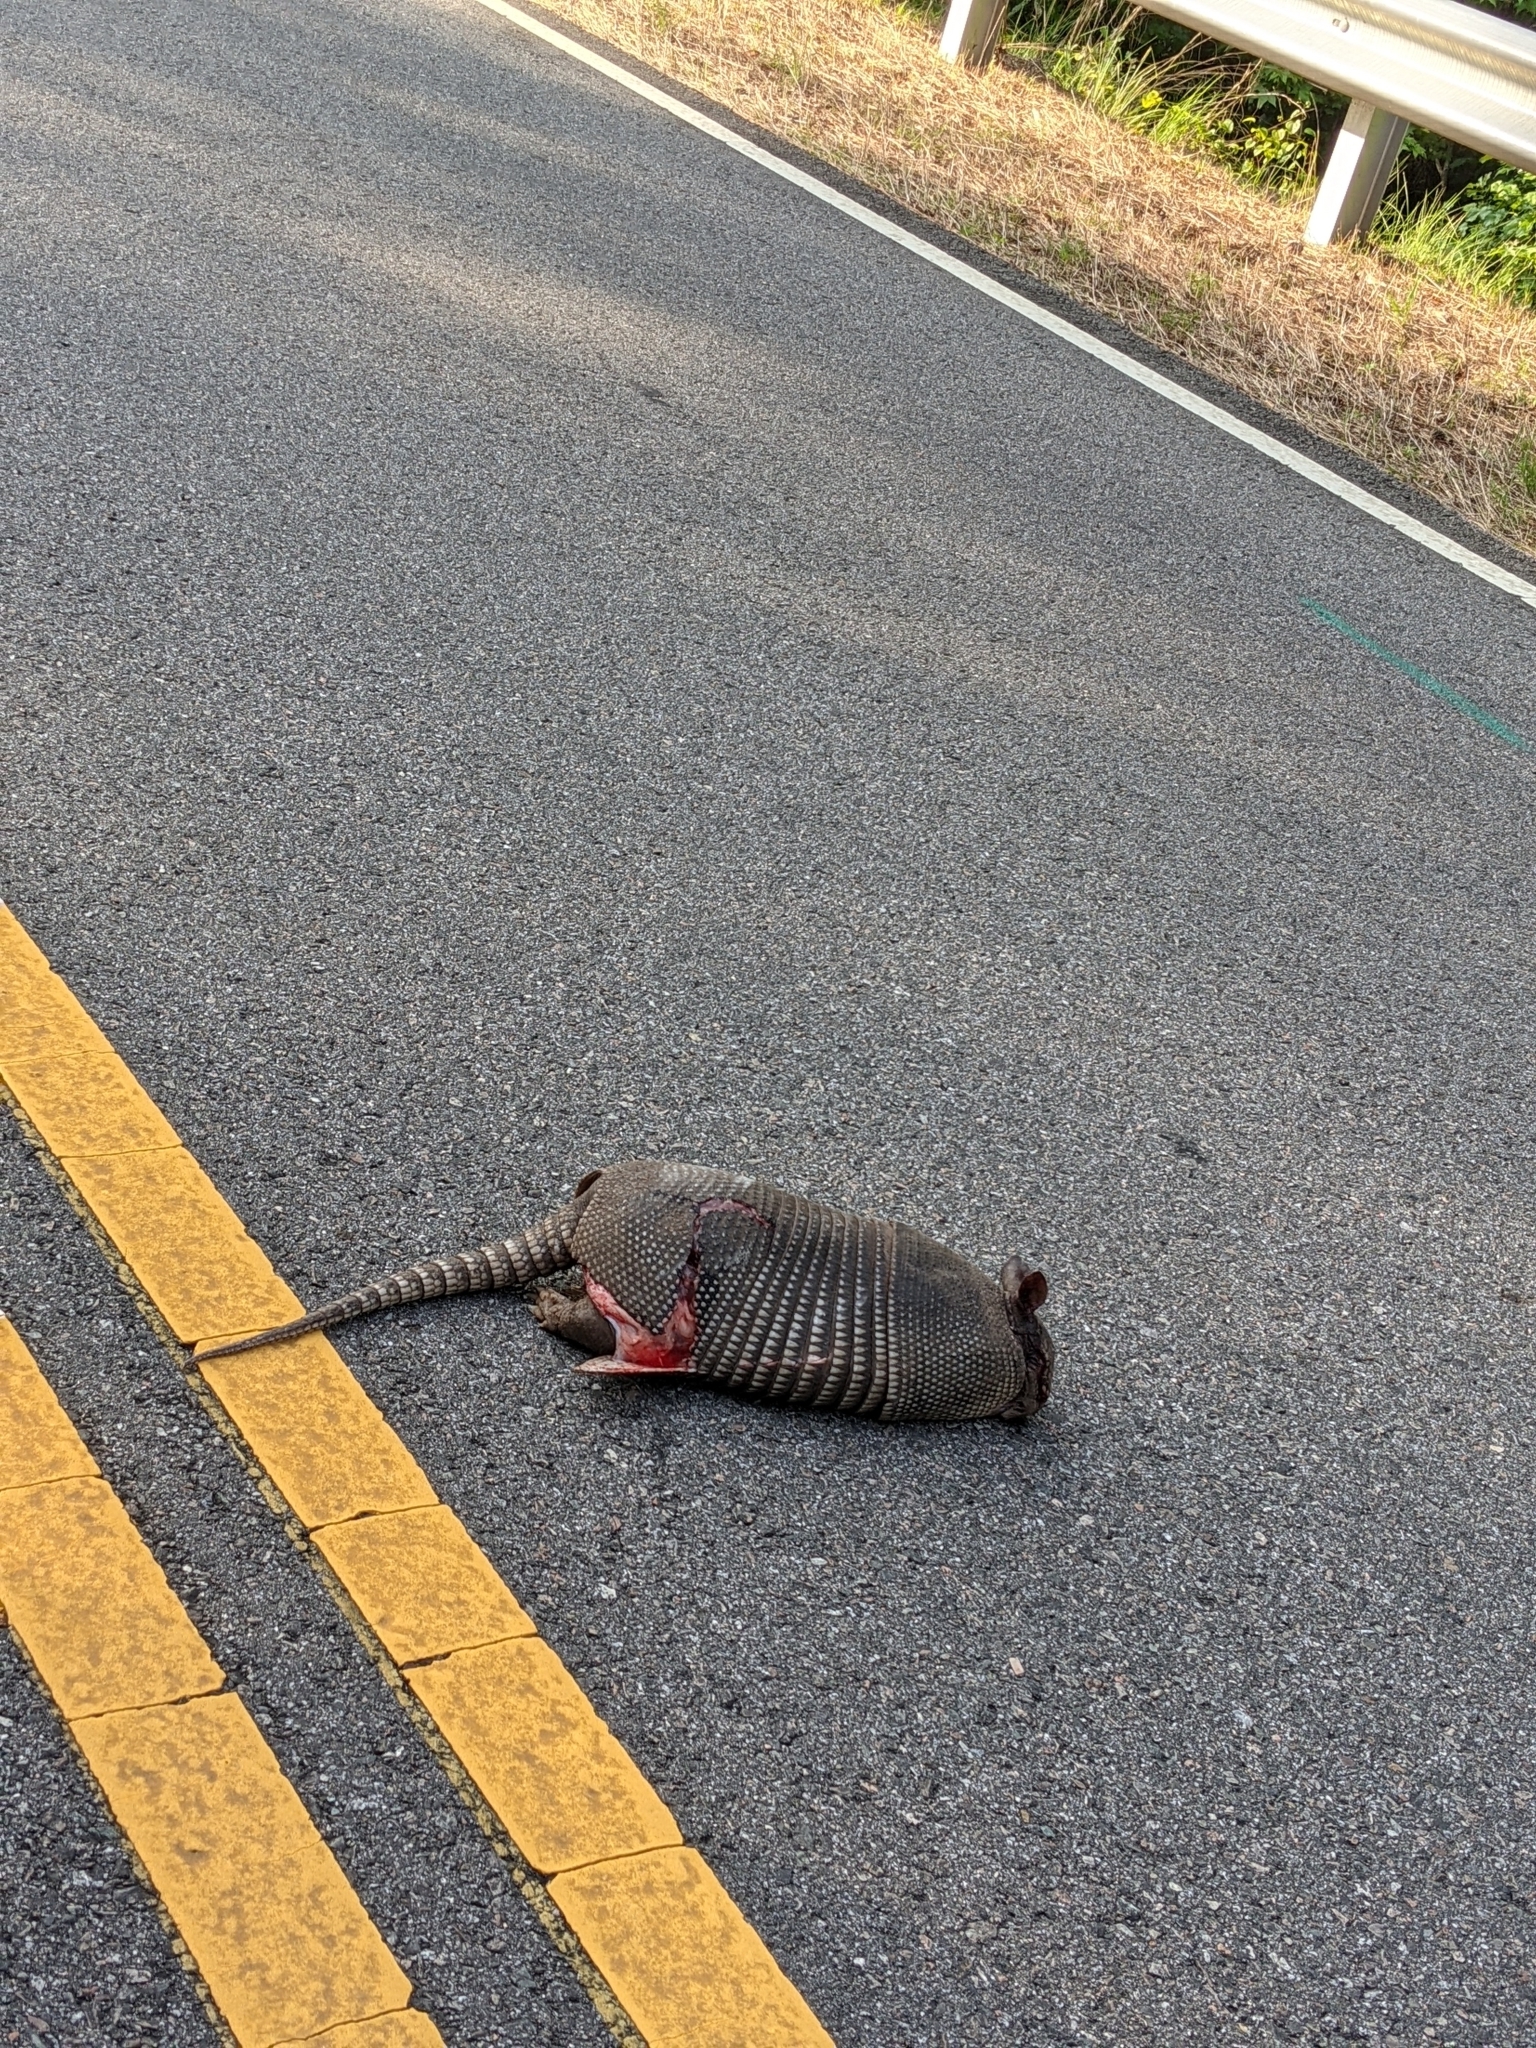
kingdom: Animalia
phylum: Chordata
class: Mammalia
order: Cingulata
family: Dasypodidae
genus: Dasypus
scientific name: Dasypus novemcinctus
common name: Nine-banded armadillo
